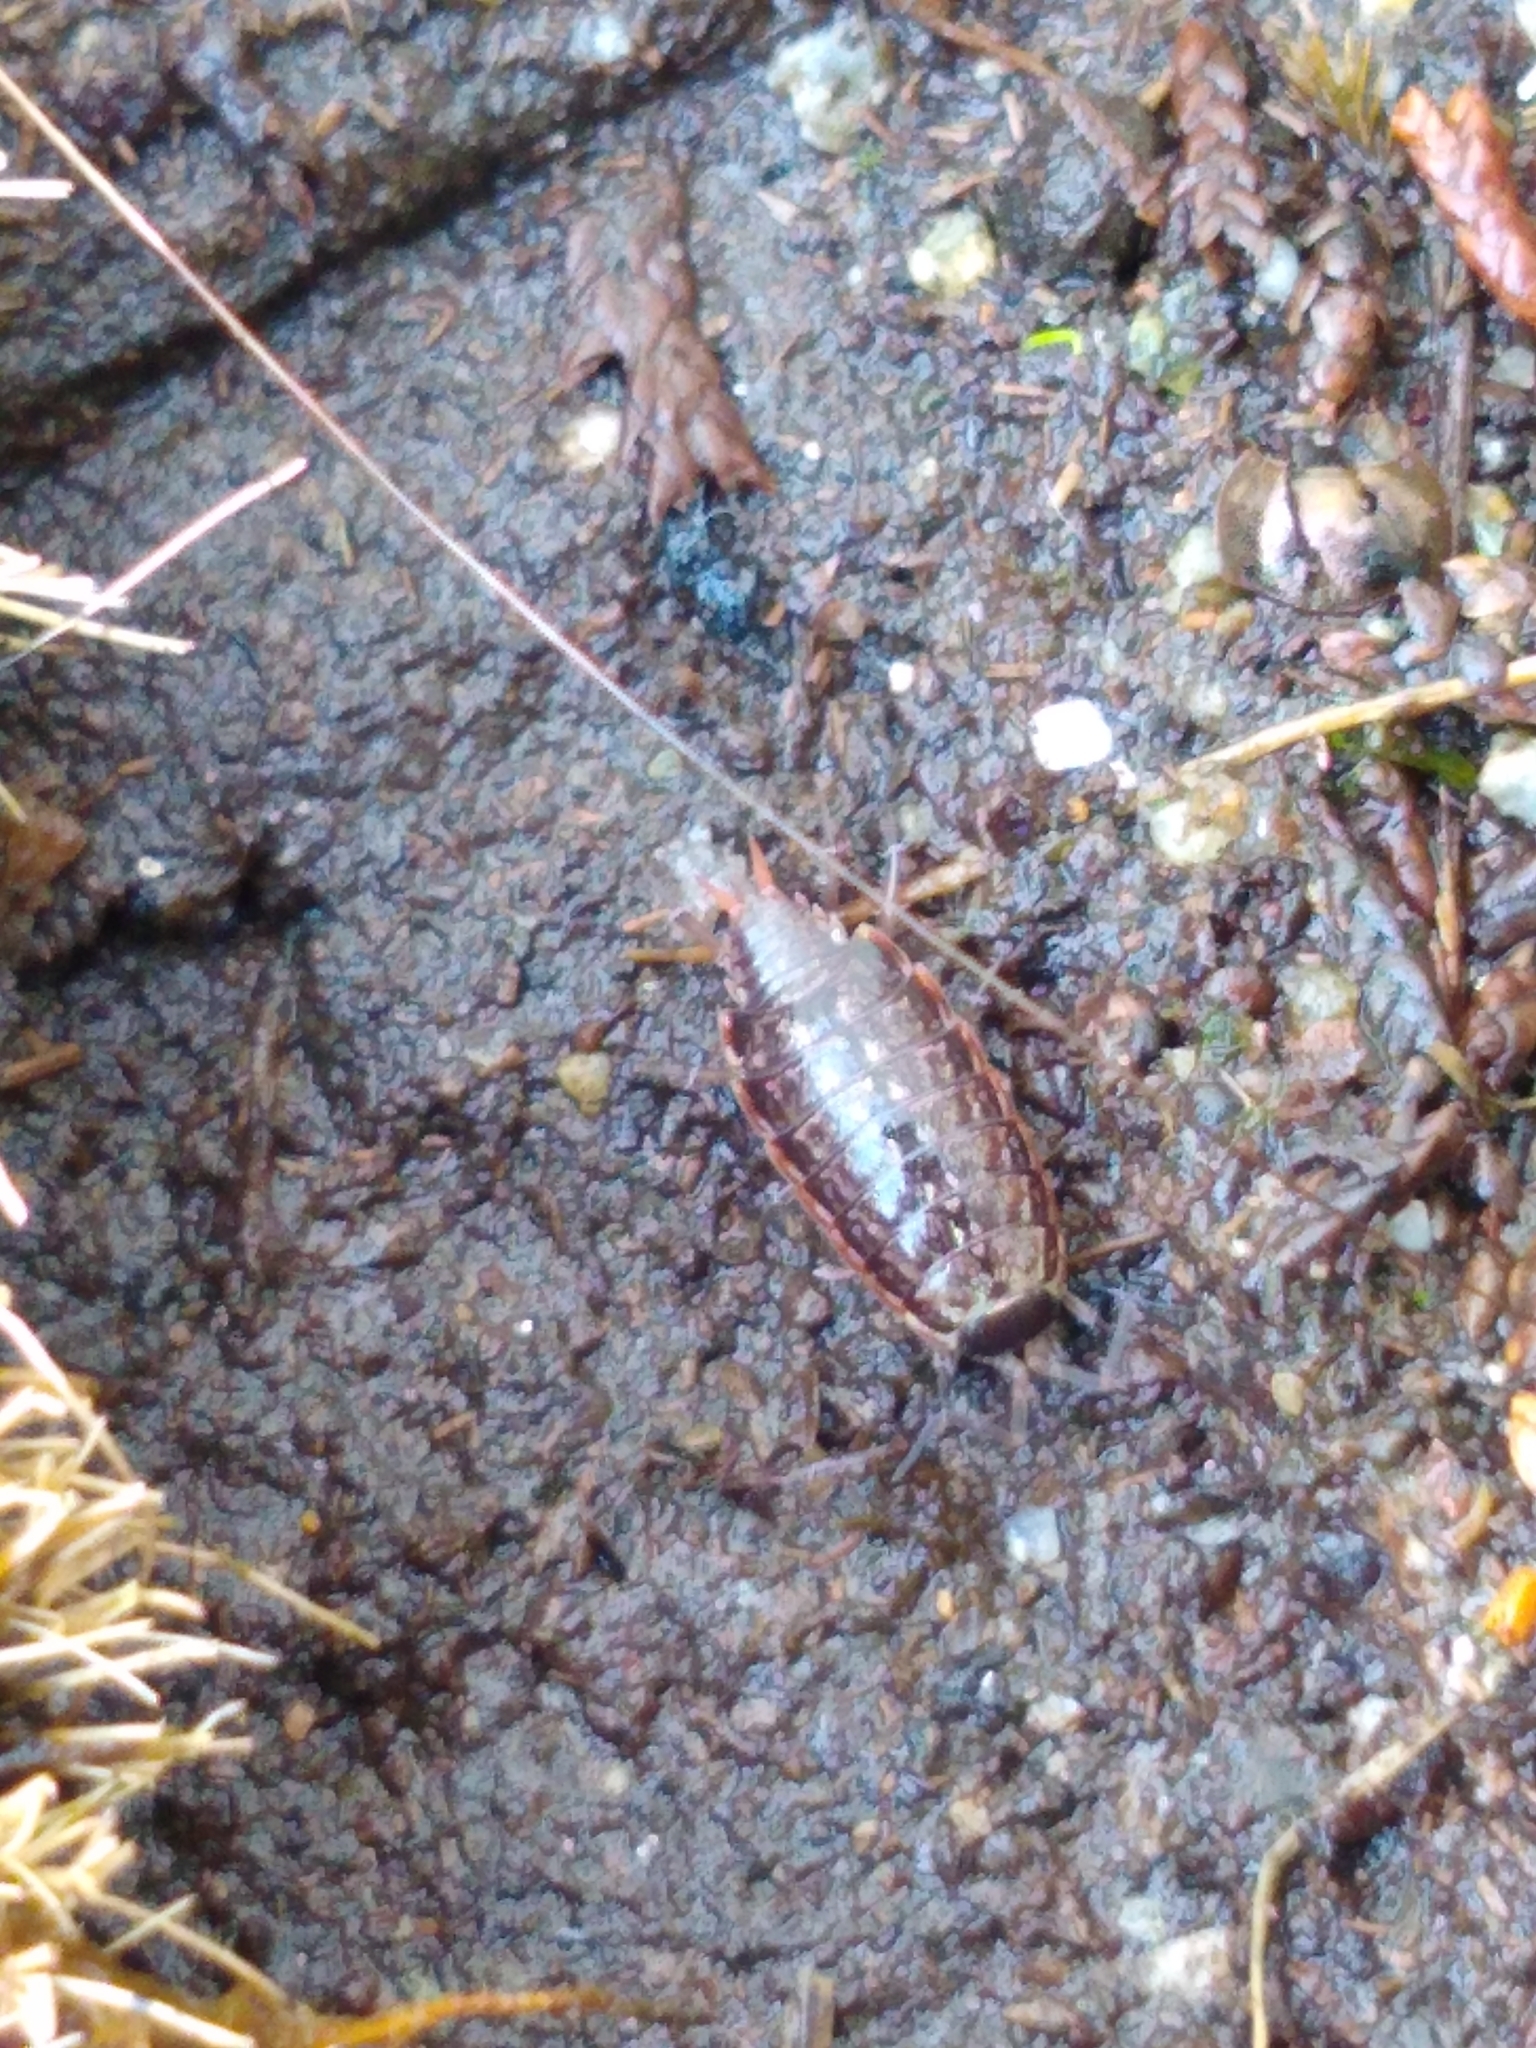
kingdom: Animalia
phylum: Arthropoda
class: Malacostraca
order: Isopoda
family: Philosciidae
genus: Philoscia
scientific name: Philoscia muscorum
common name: Common striped woodlouse
